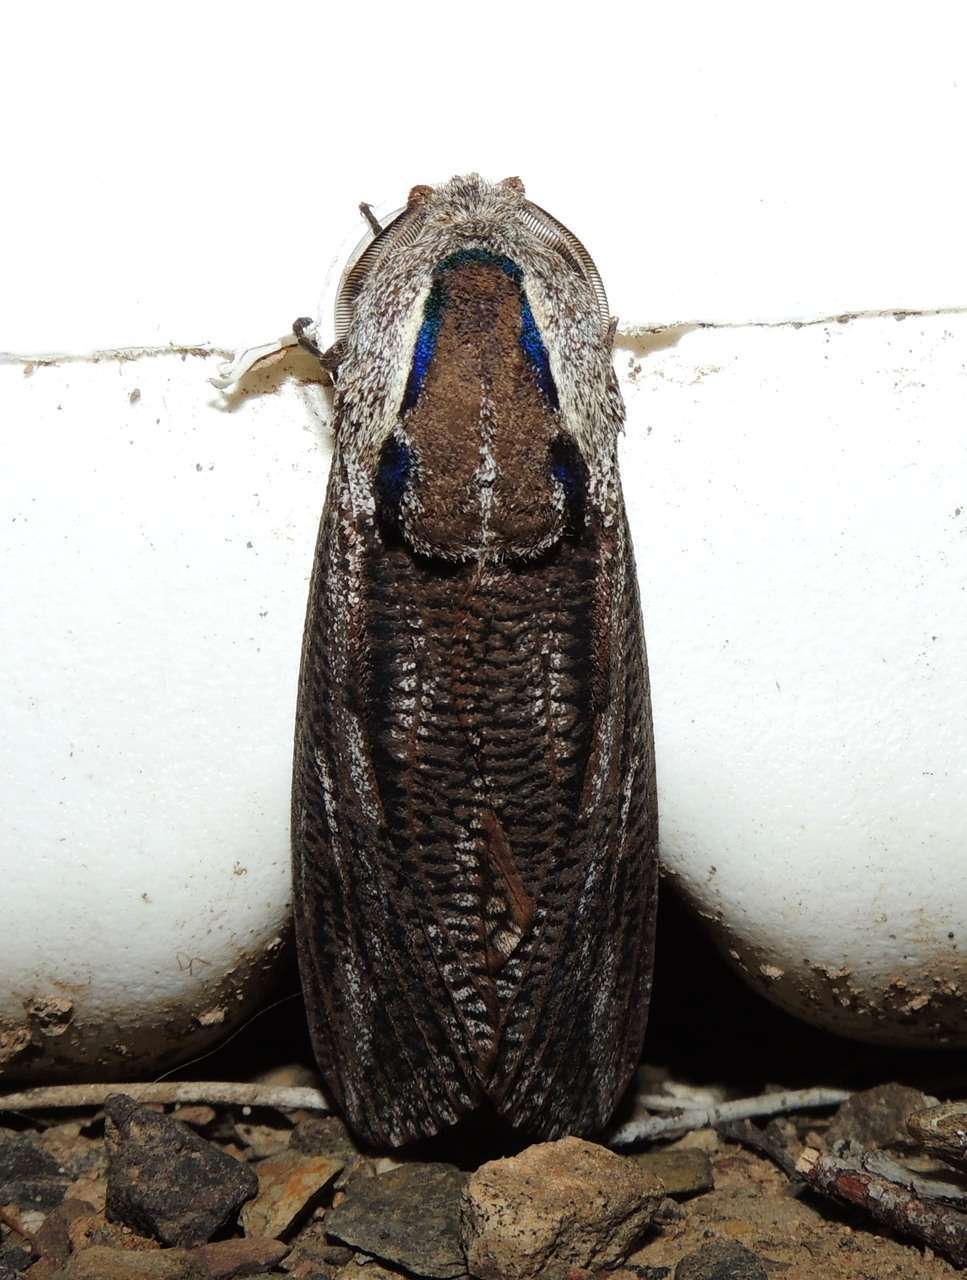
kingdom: Animalia
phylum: Arthropoda
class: Insecta
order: Lepidoptera
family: Cossidae
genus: Endoxyla
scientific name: Endoxyla encalypti
